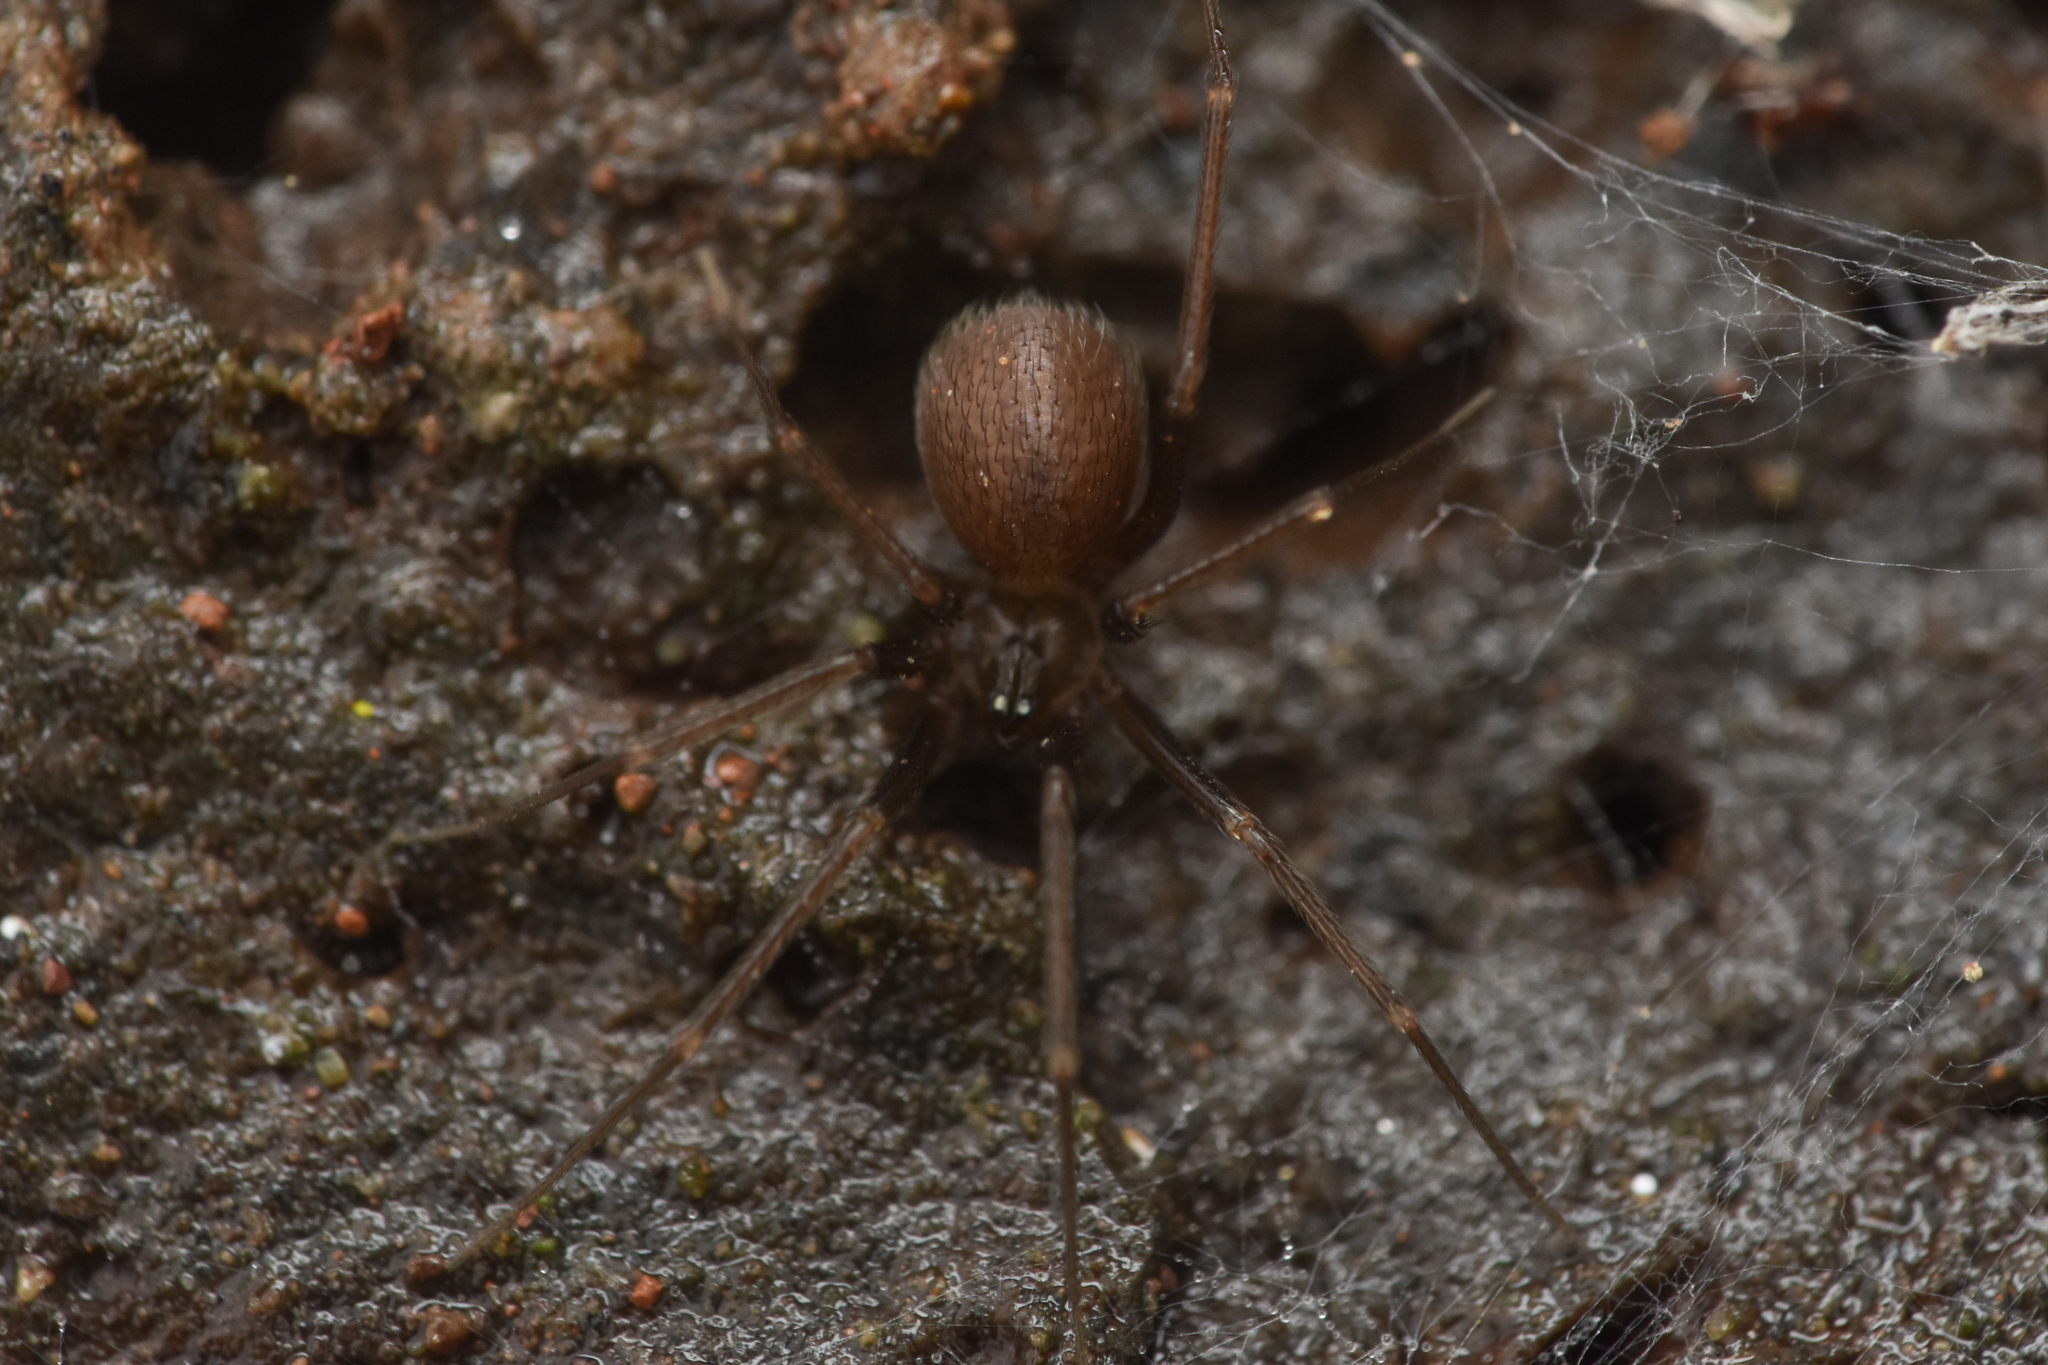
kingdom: Animalia
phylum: Arthropoda
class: Arachnida
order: Araneae
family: Pholcidae
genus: Pholcophora
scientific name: Pholcophora americana
